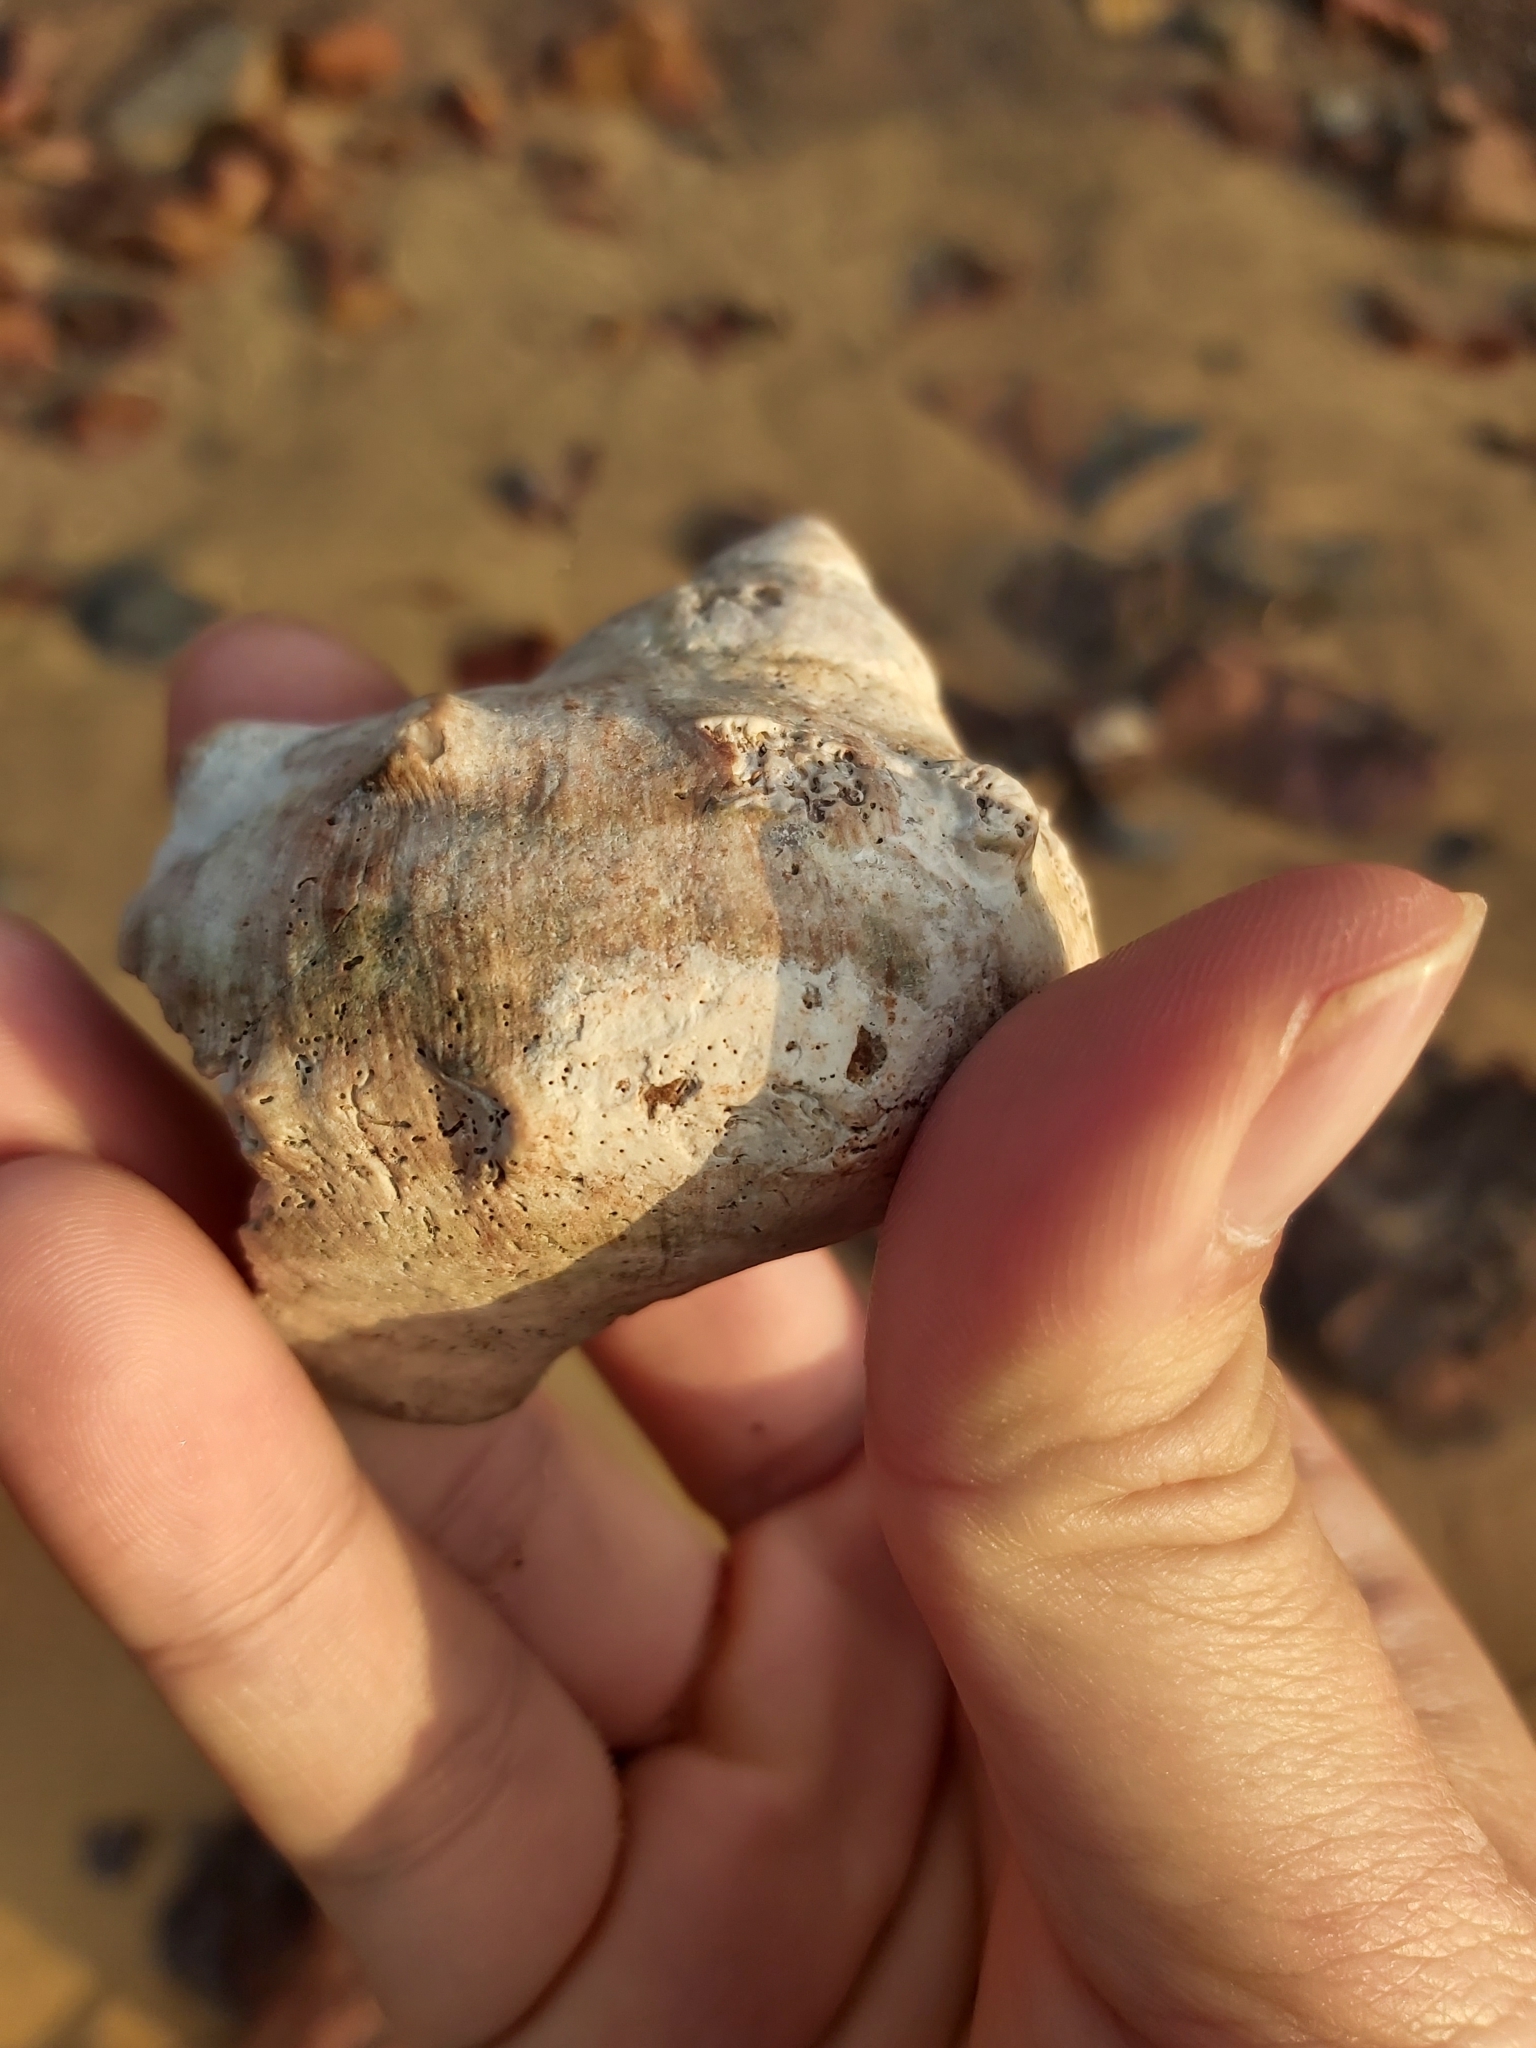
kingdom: Animalia
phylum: Mollusca
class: Gastropoda
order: Trochida
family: Turbinidae
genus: Turbo
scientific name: Turbo militaris
